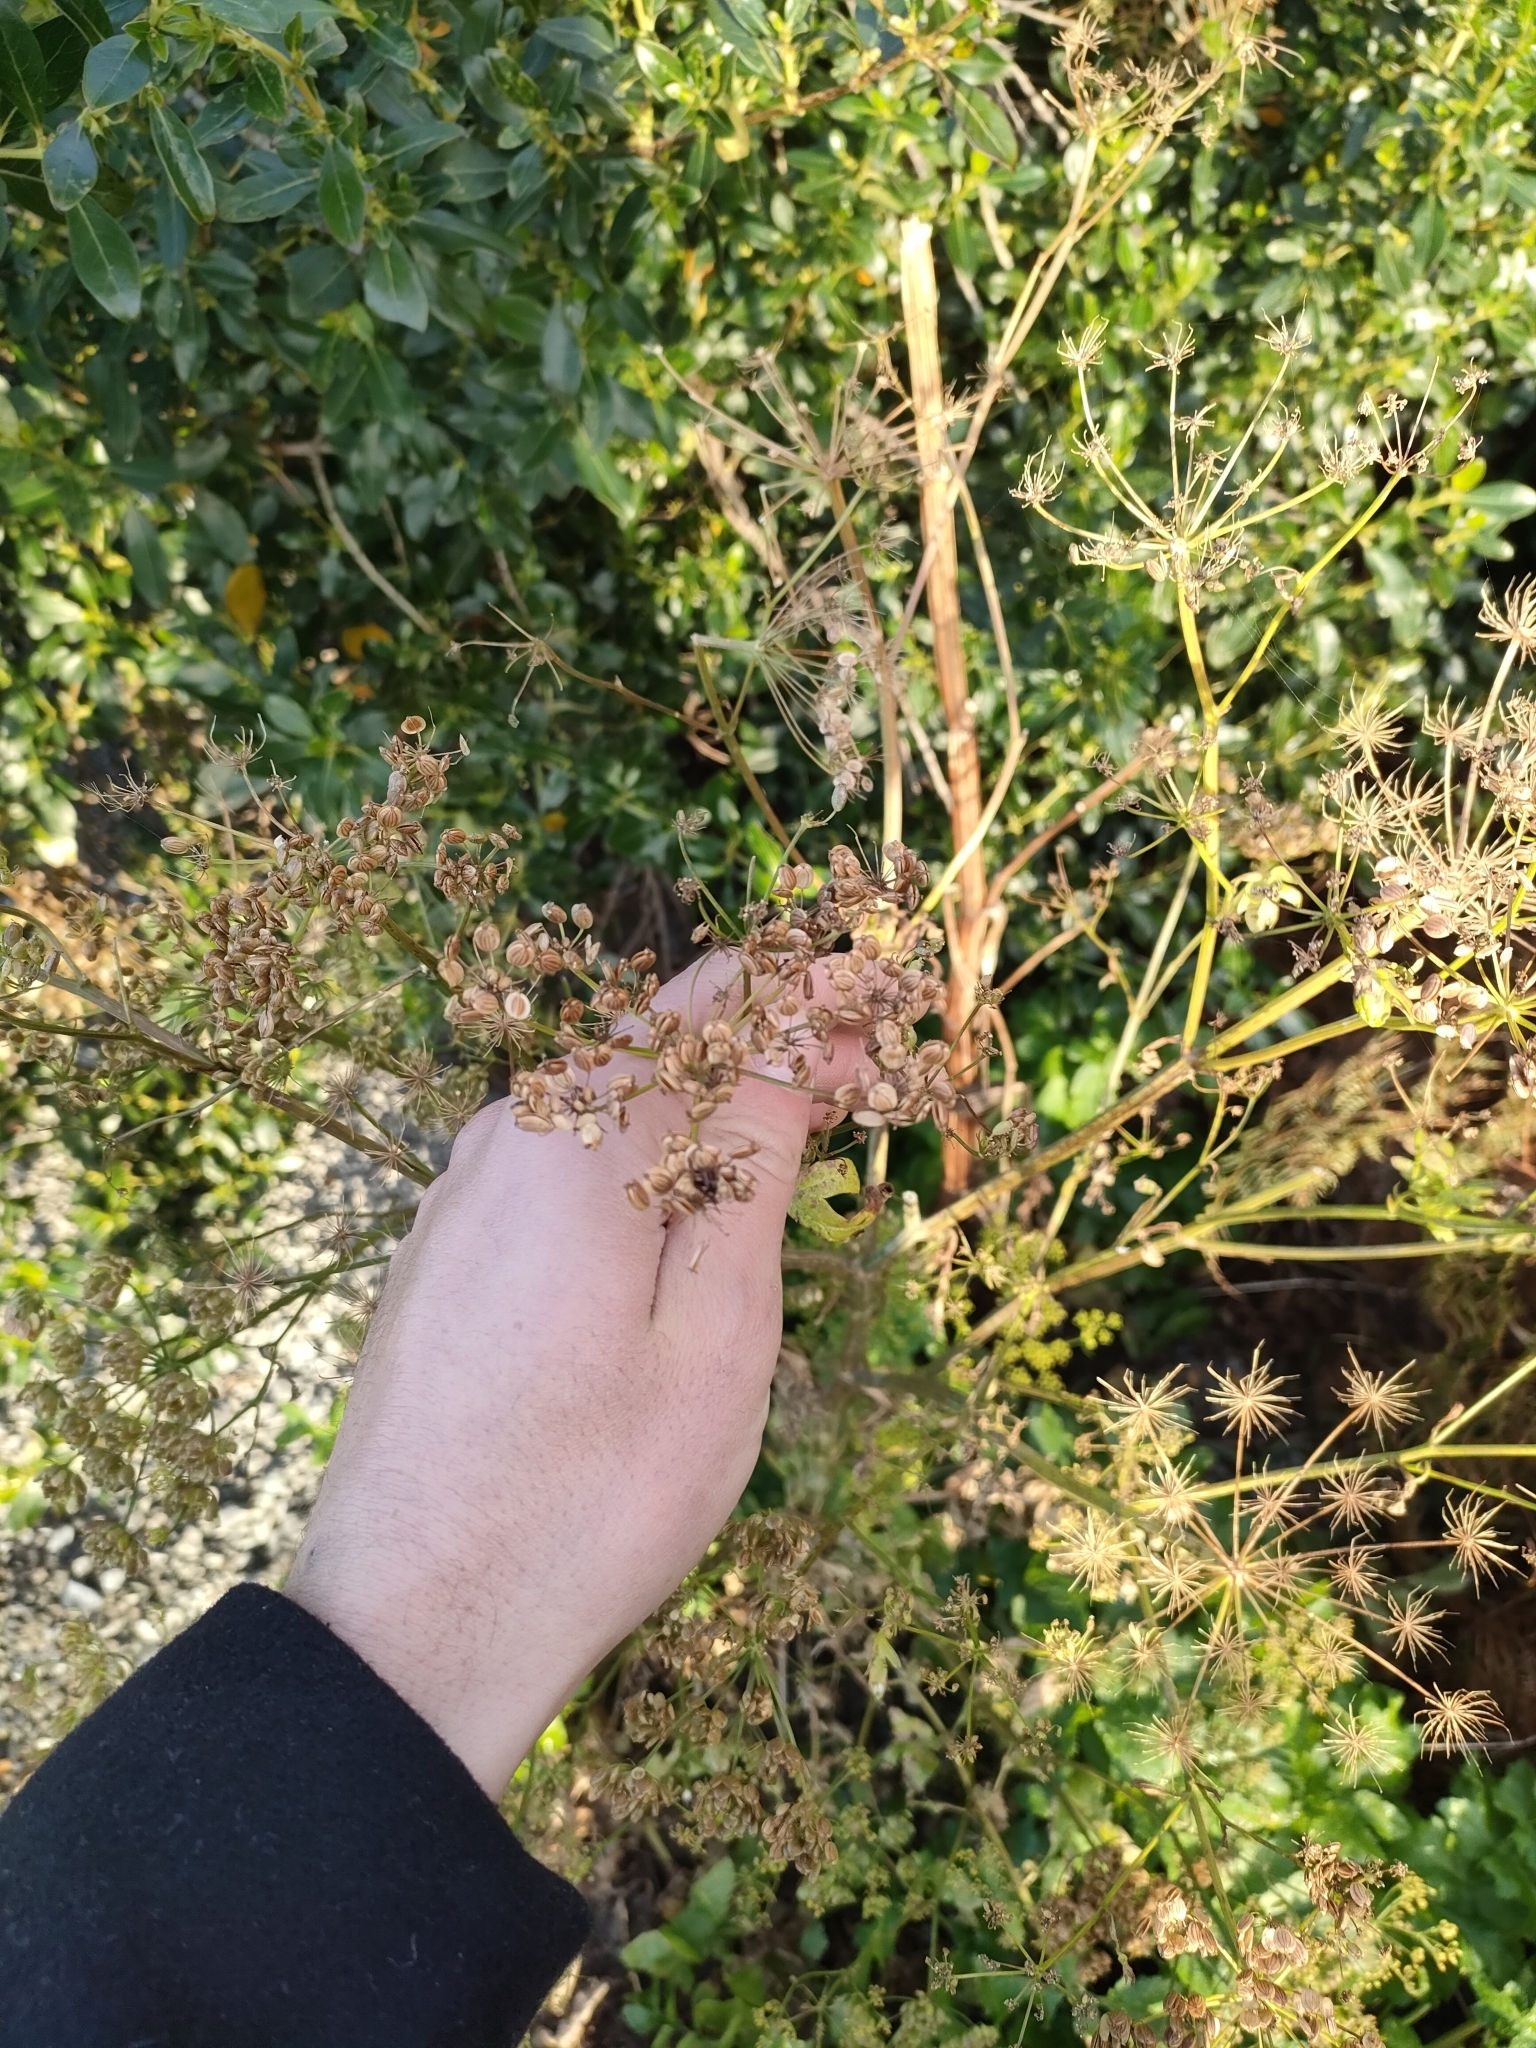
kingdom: Plantae
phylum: Tracheophyta
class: Magnoliopsida
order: Apiales
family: Apiaceae
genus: Pastinaca
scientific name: Pastinaca sativa
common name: Wild parsnip
